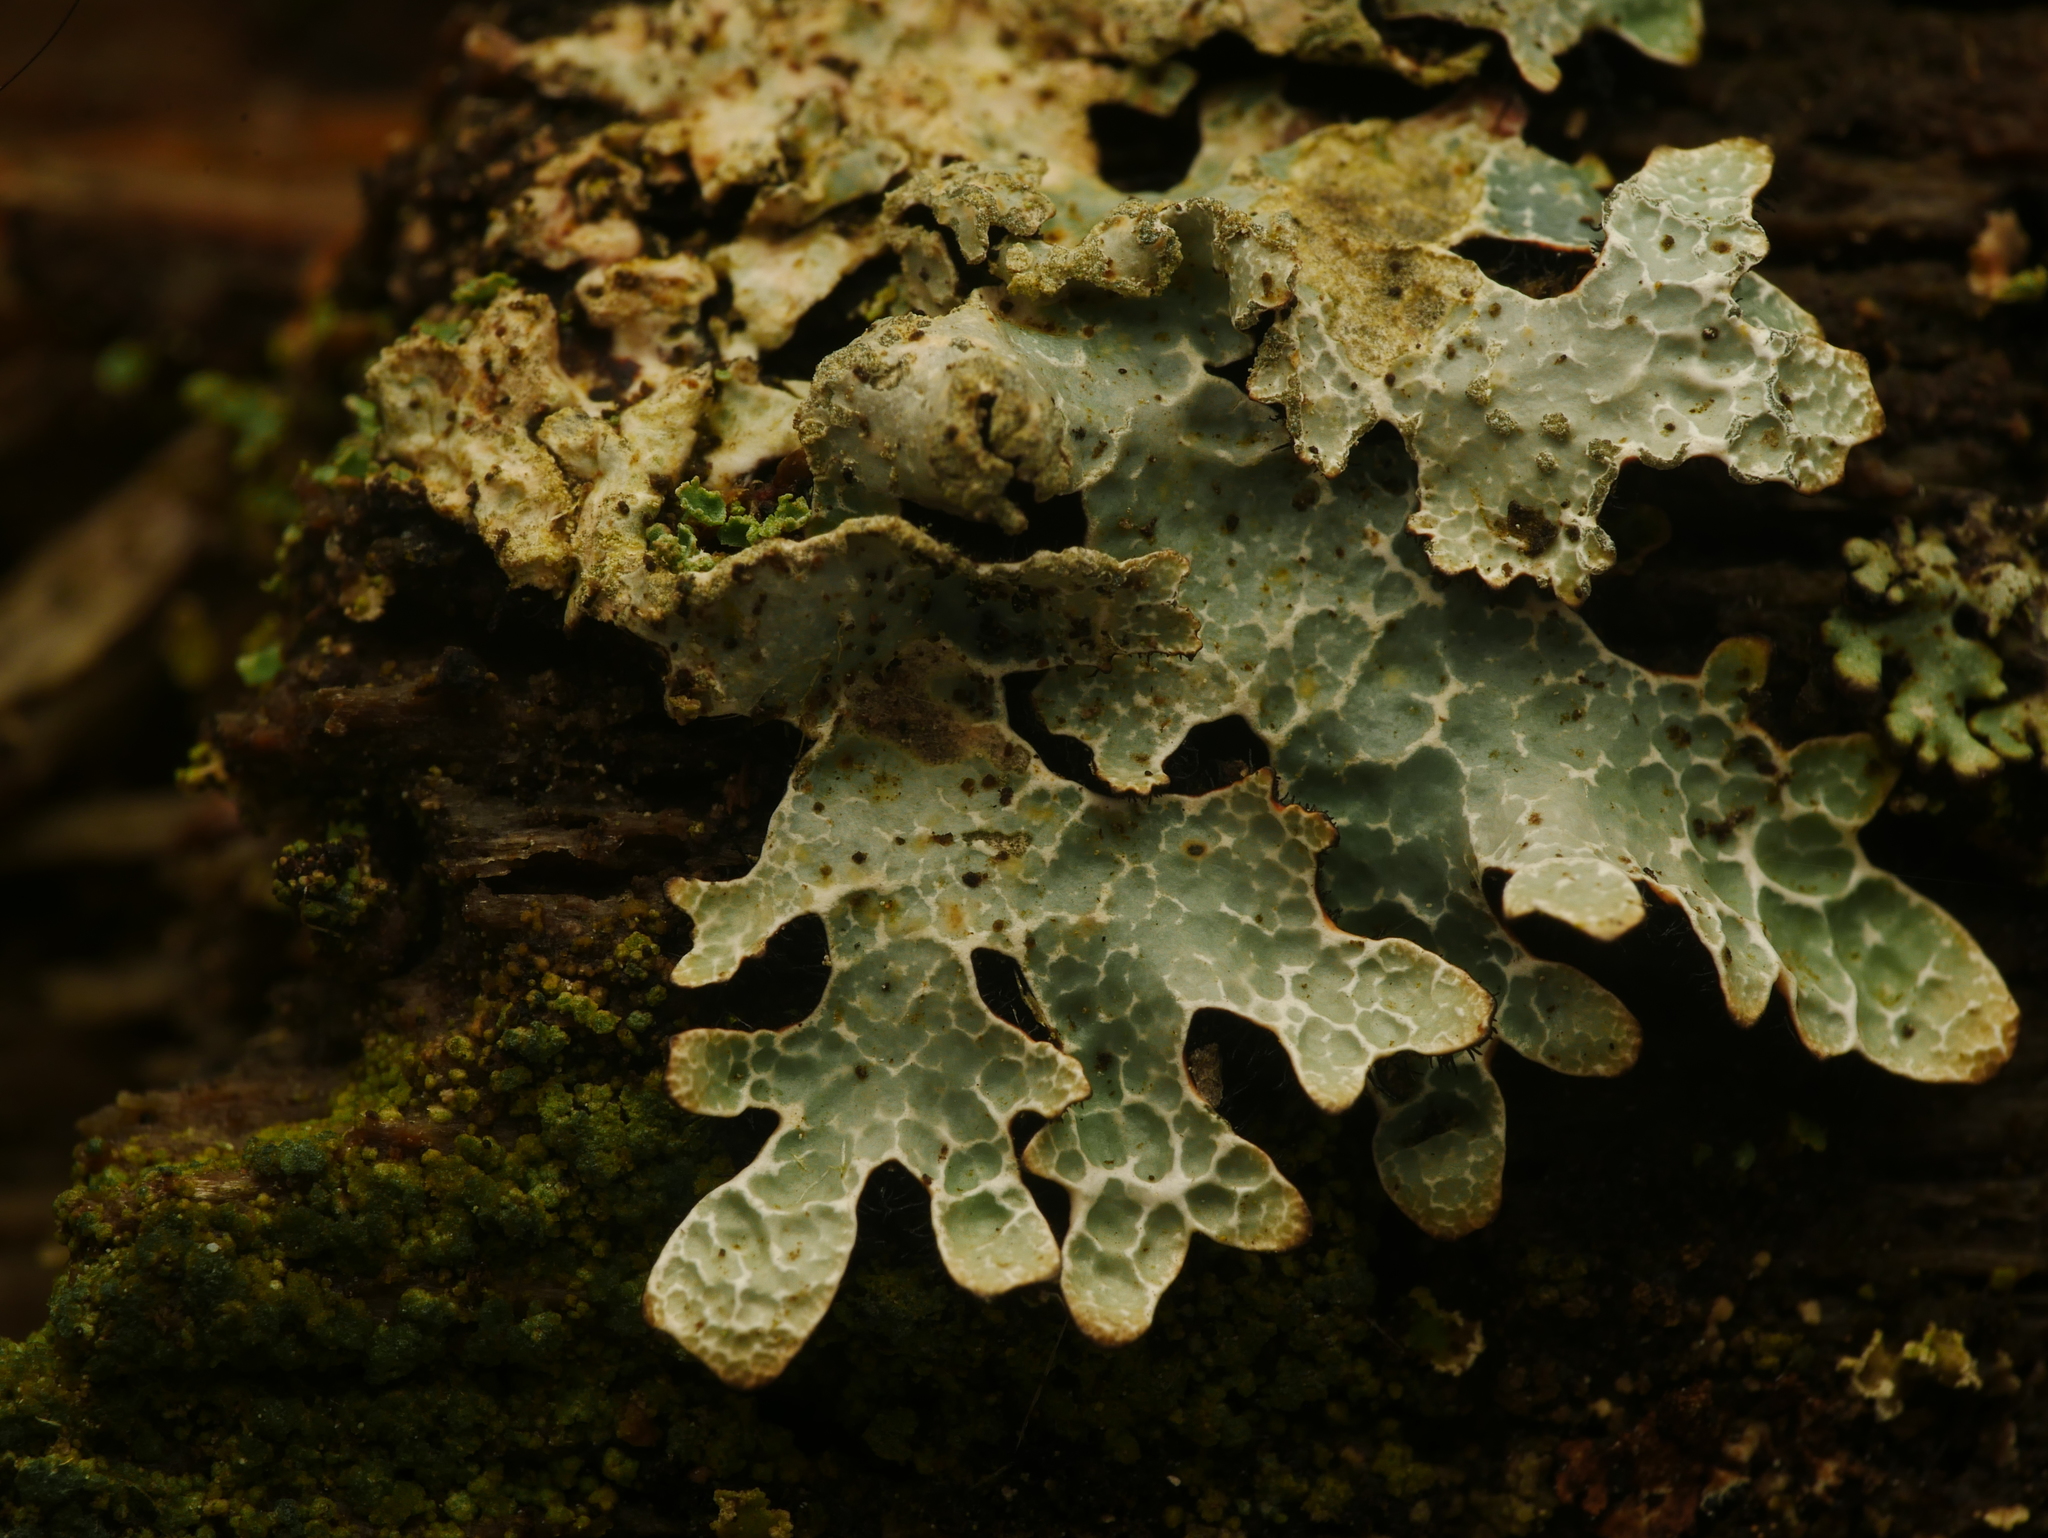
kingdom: Fungi
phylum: Ascomycota
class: Lecanoromycetes
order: Lecanorales
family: Parmeliaceae
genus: Parmelia
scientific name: Parmelia sulcata
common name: Netted shield lichen
